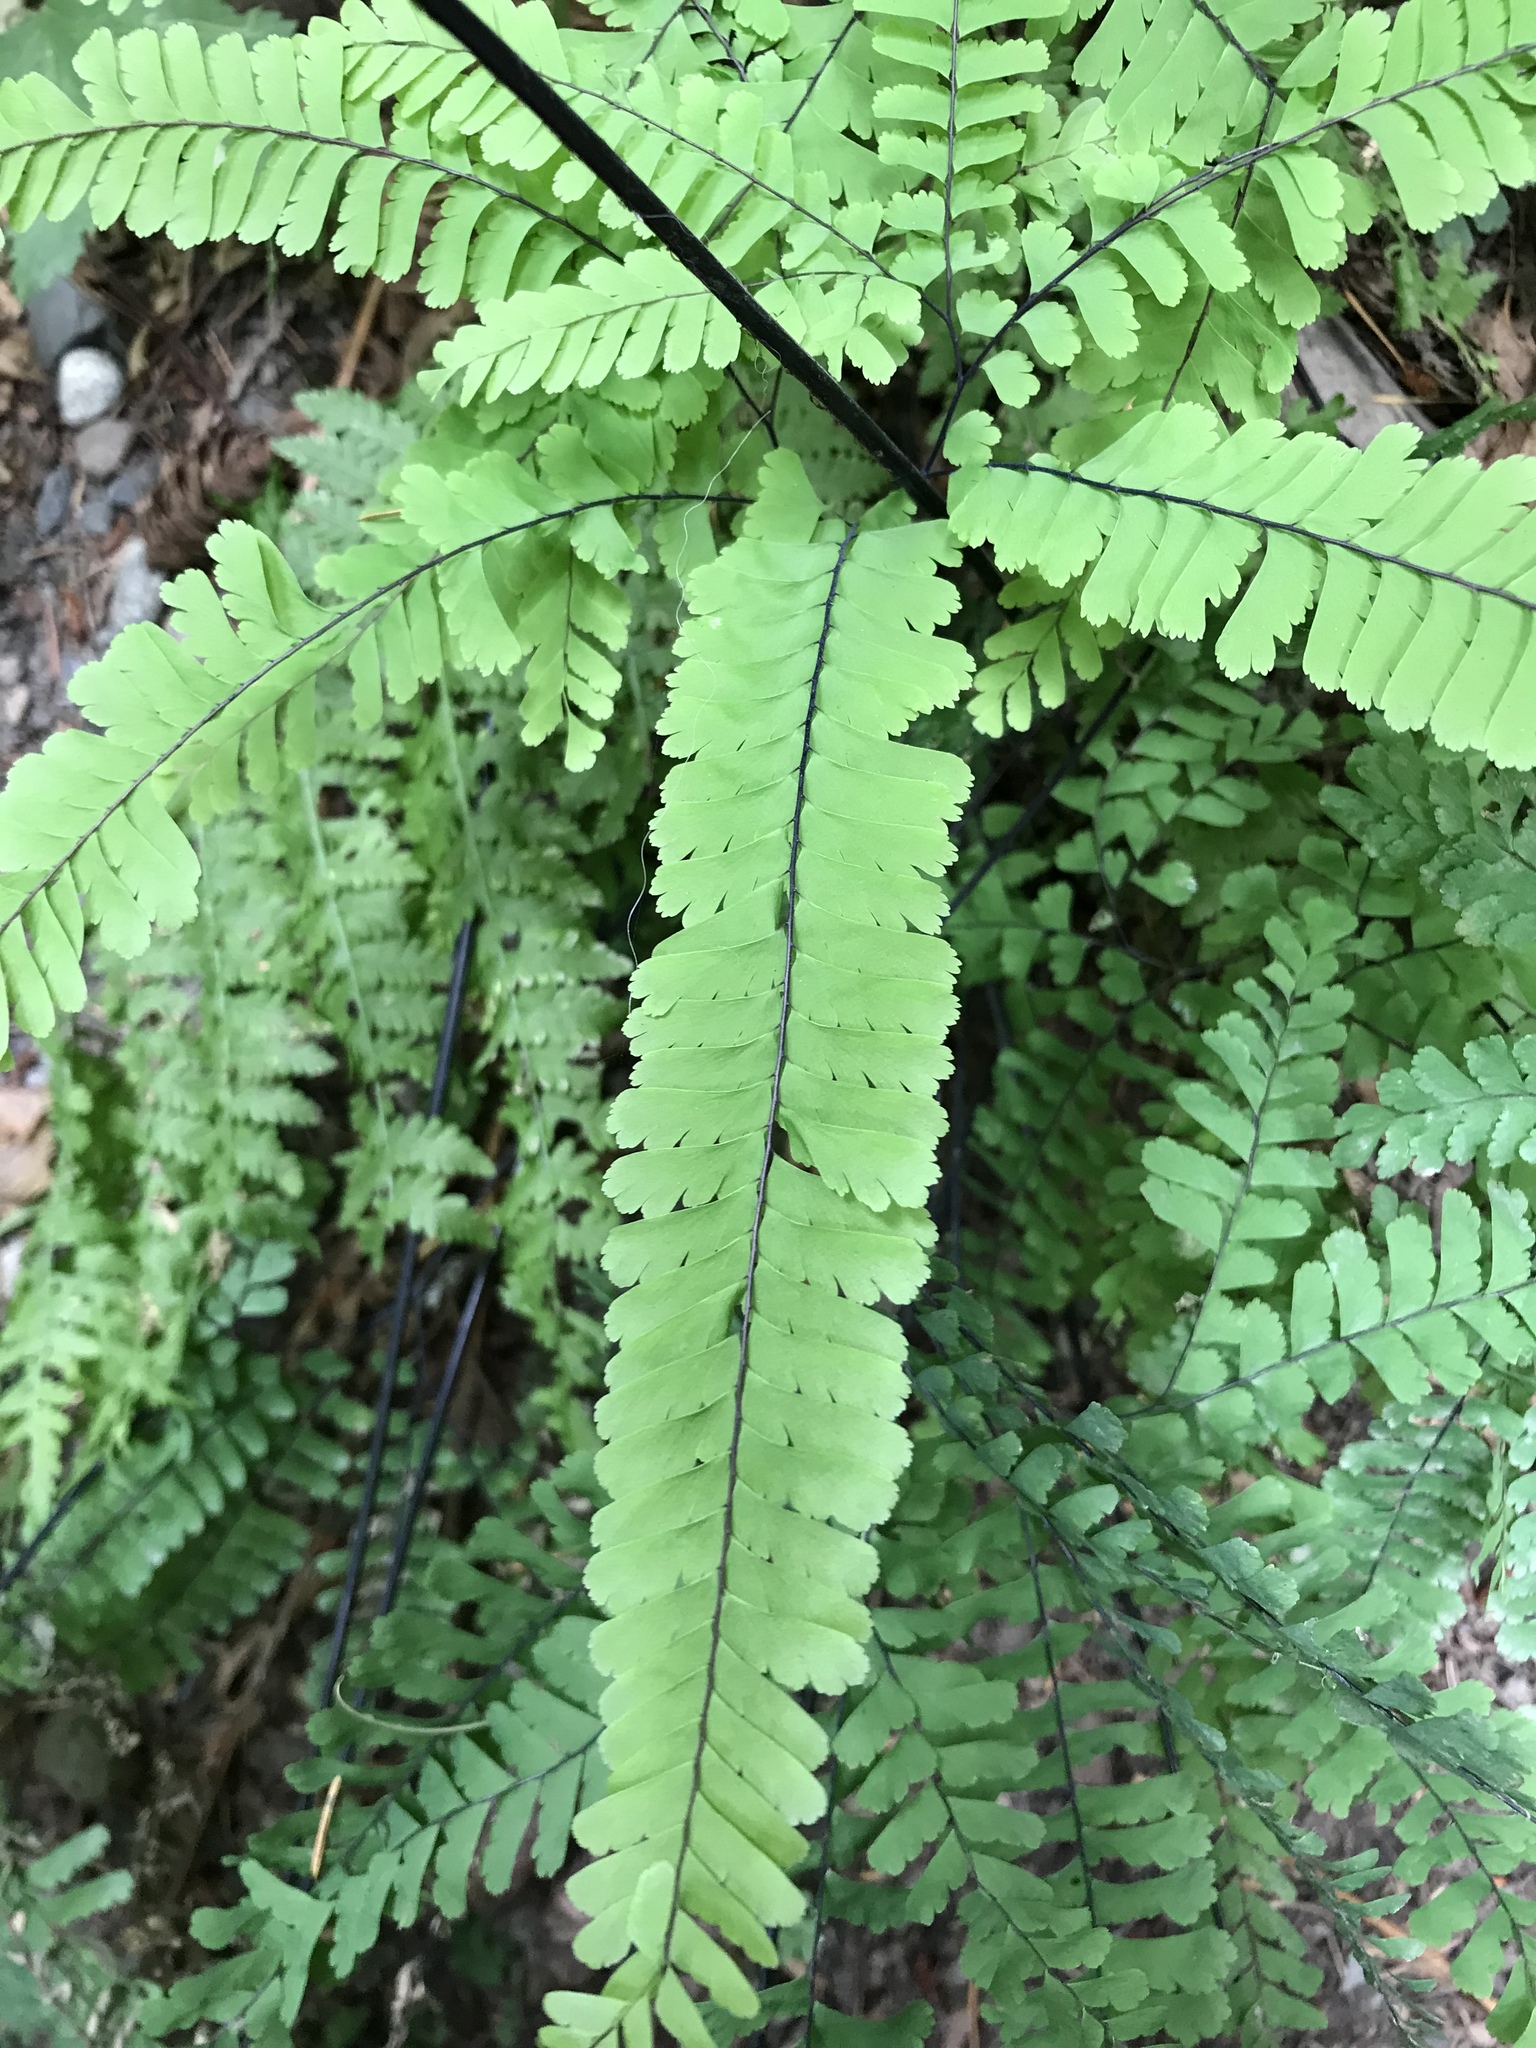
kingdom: Plantae
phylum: Tracheophyta
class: Polypodiopsida
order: Polypodiales
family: Pteridaceae
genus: Adiantum
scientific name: Adiantum aleuticum
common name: Aleutian maidenhair fern
